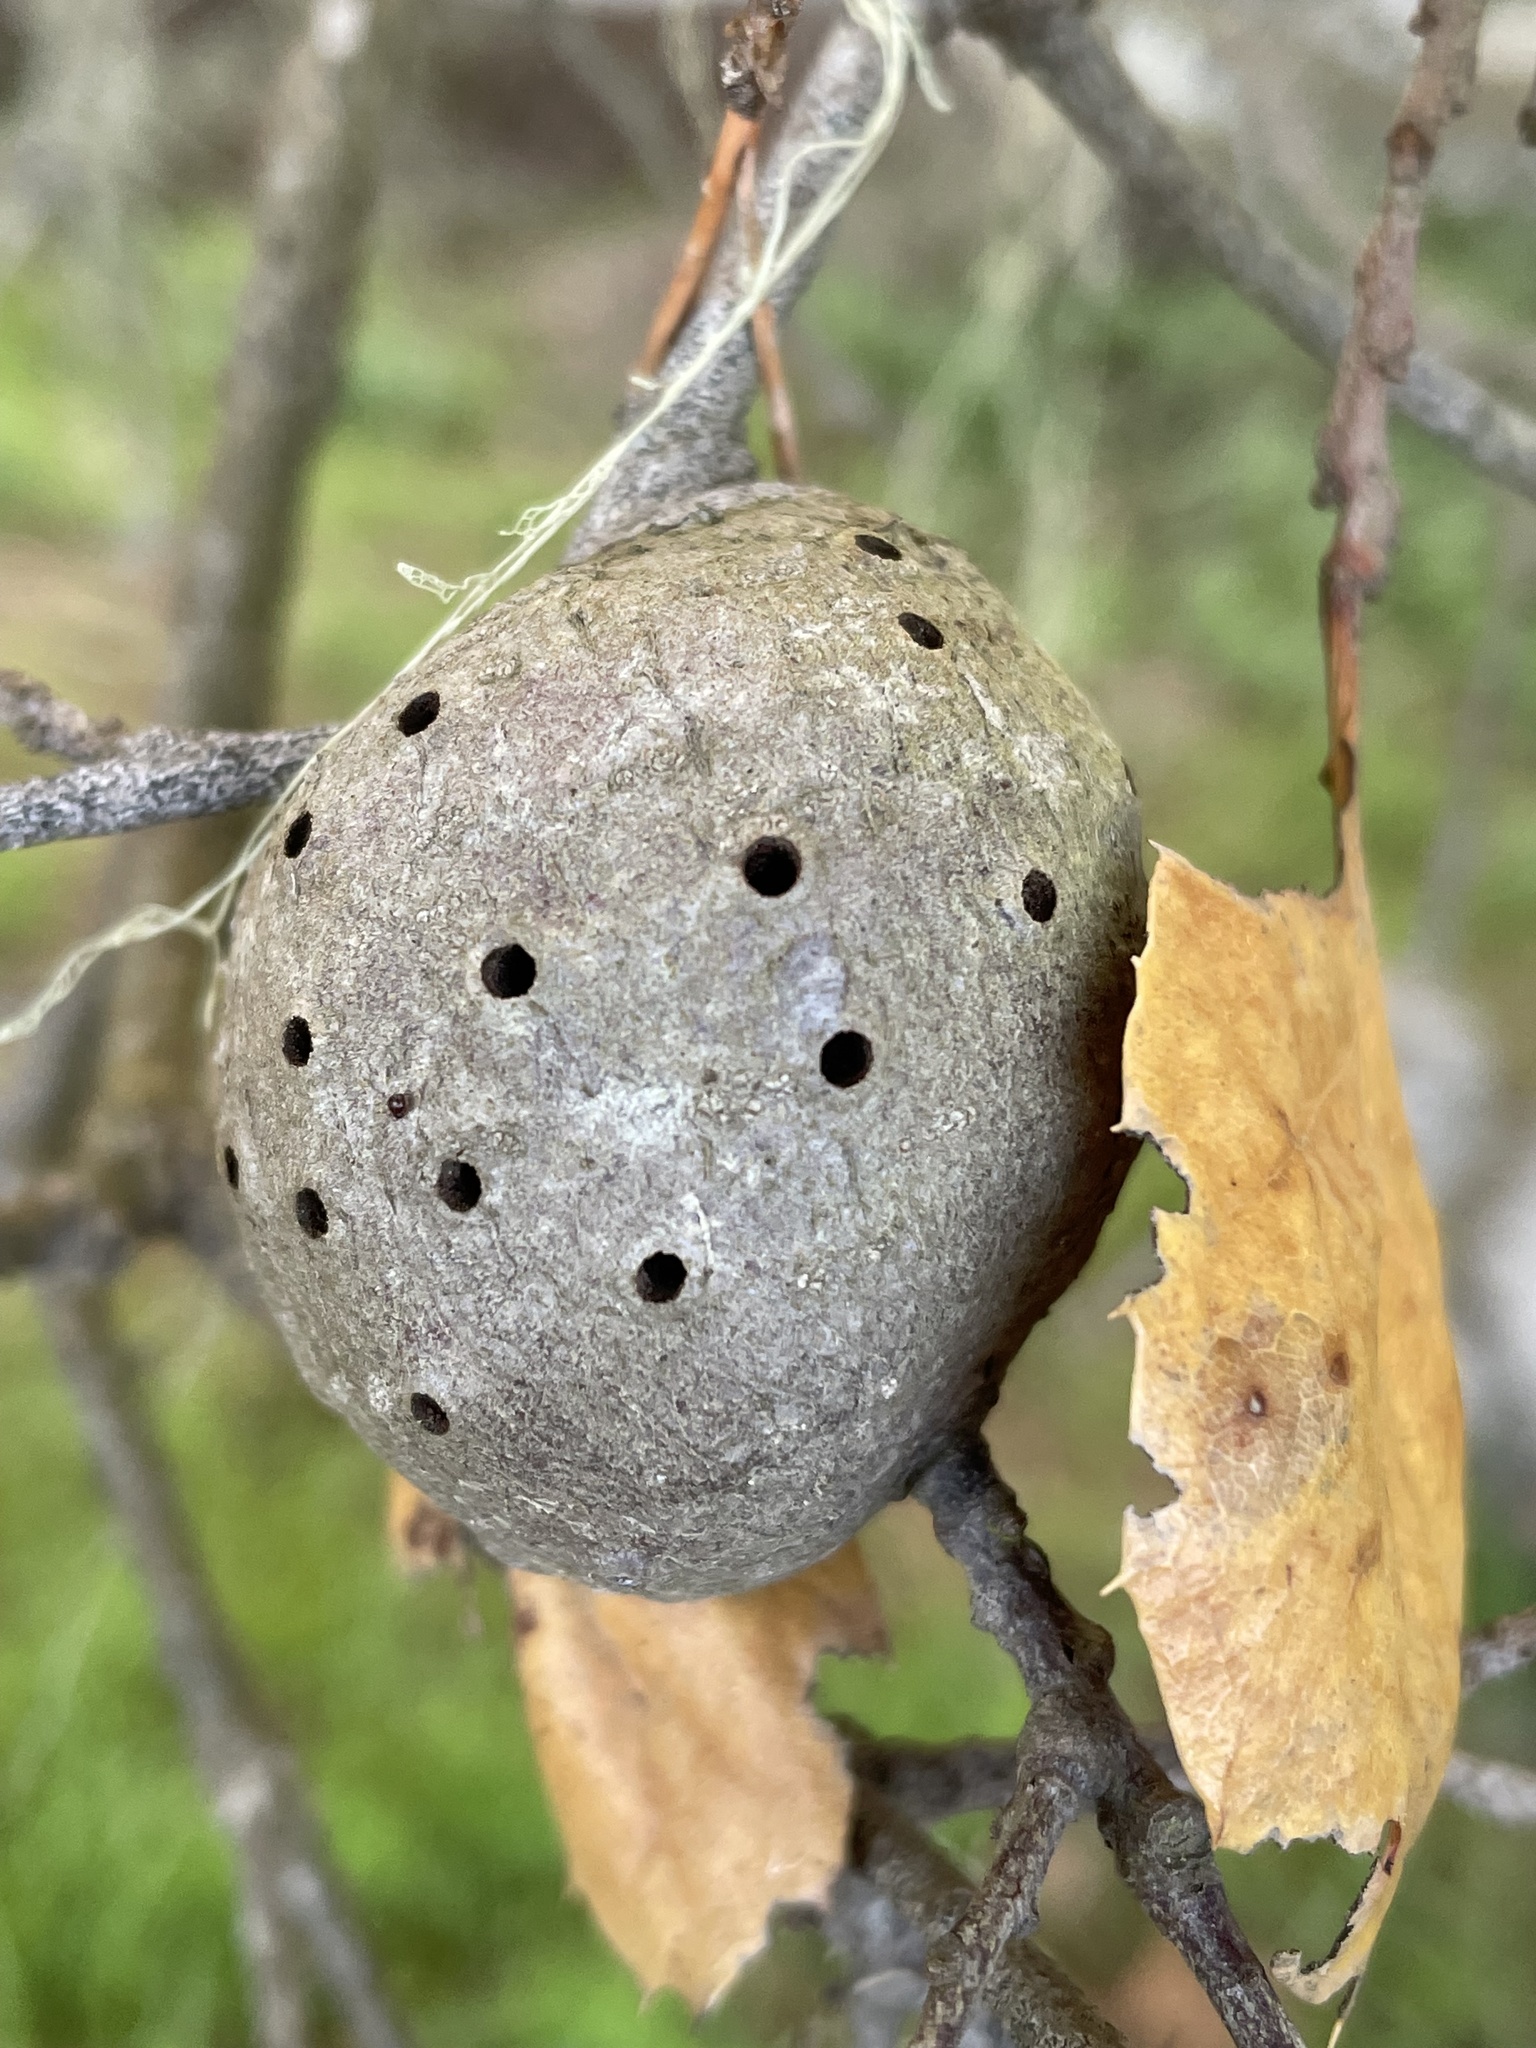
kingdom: Animalia
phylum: Arthropoda
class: Insecta
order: Hymenoptera
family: Cynipidae
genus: Callirhytis
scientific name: Callirhytis
